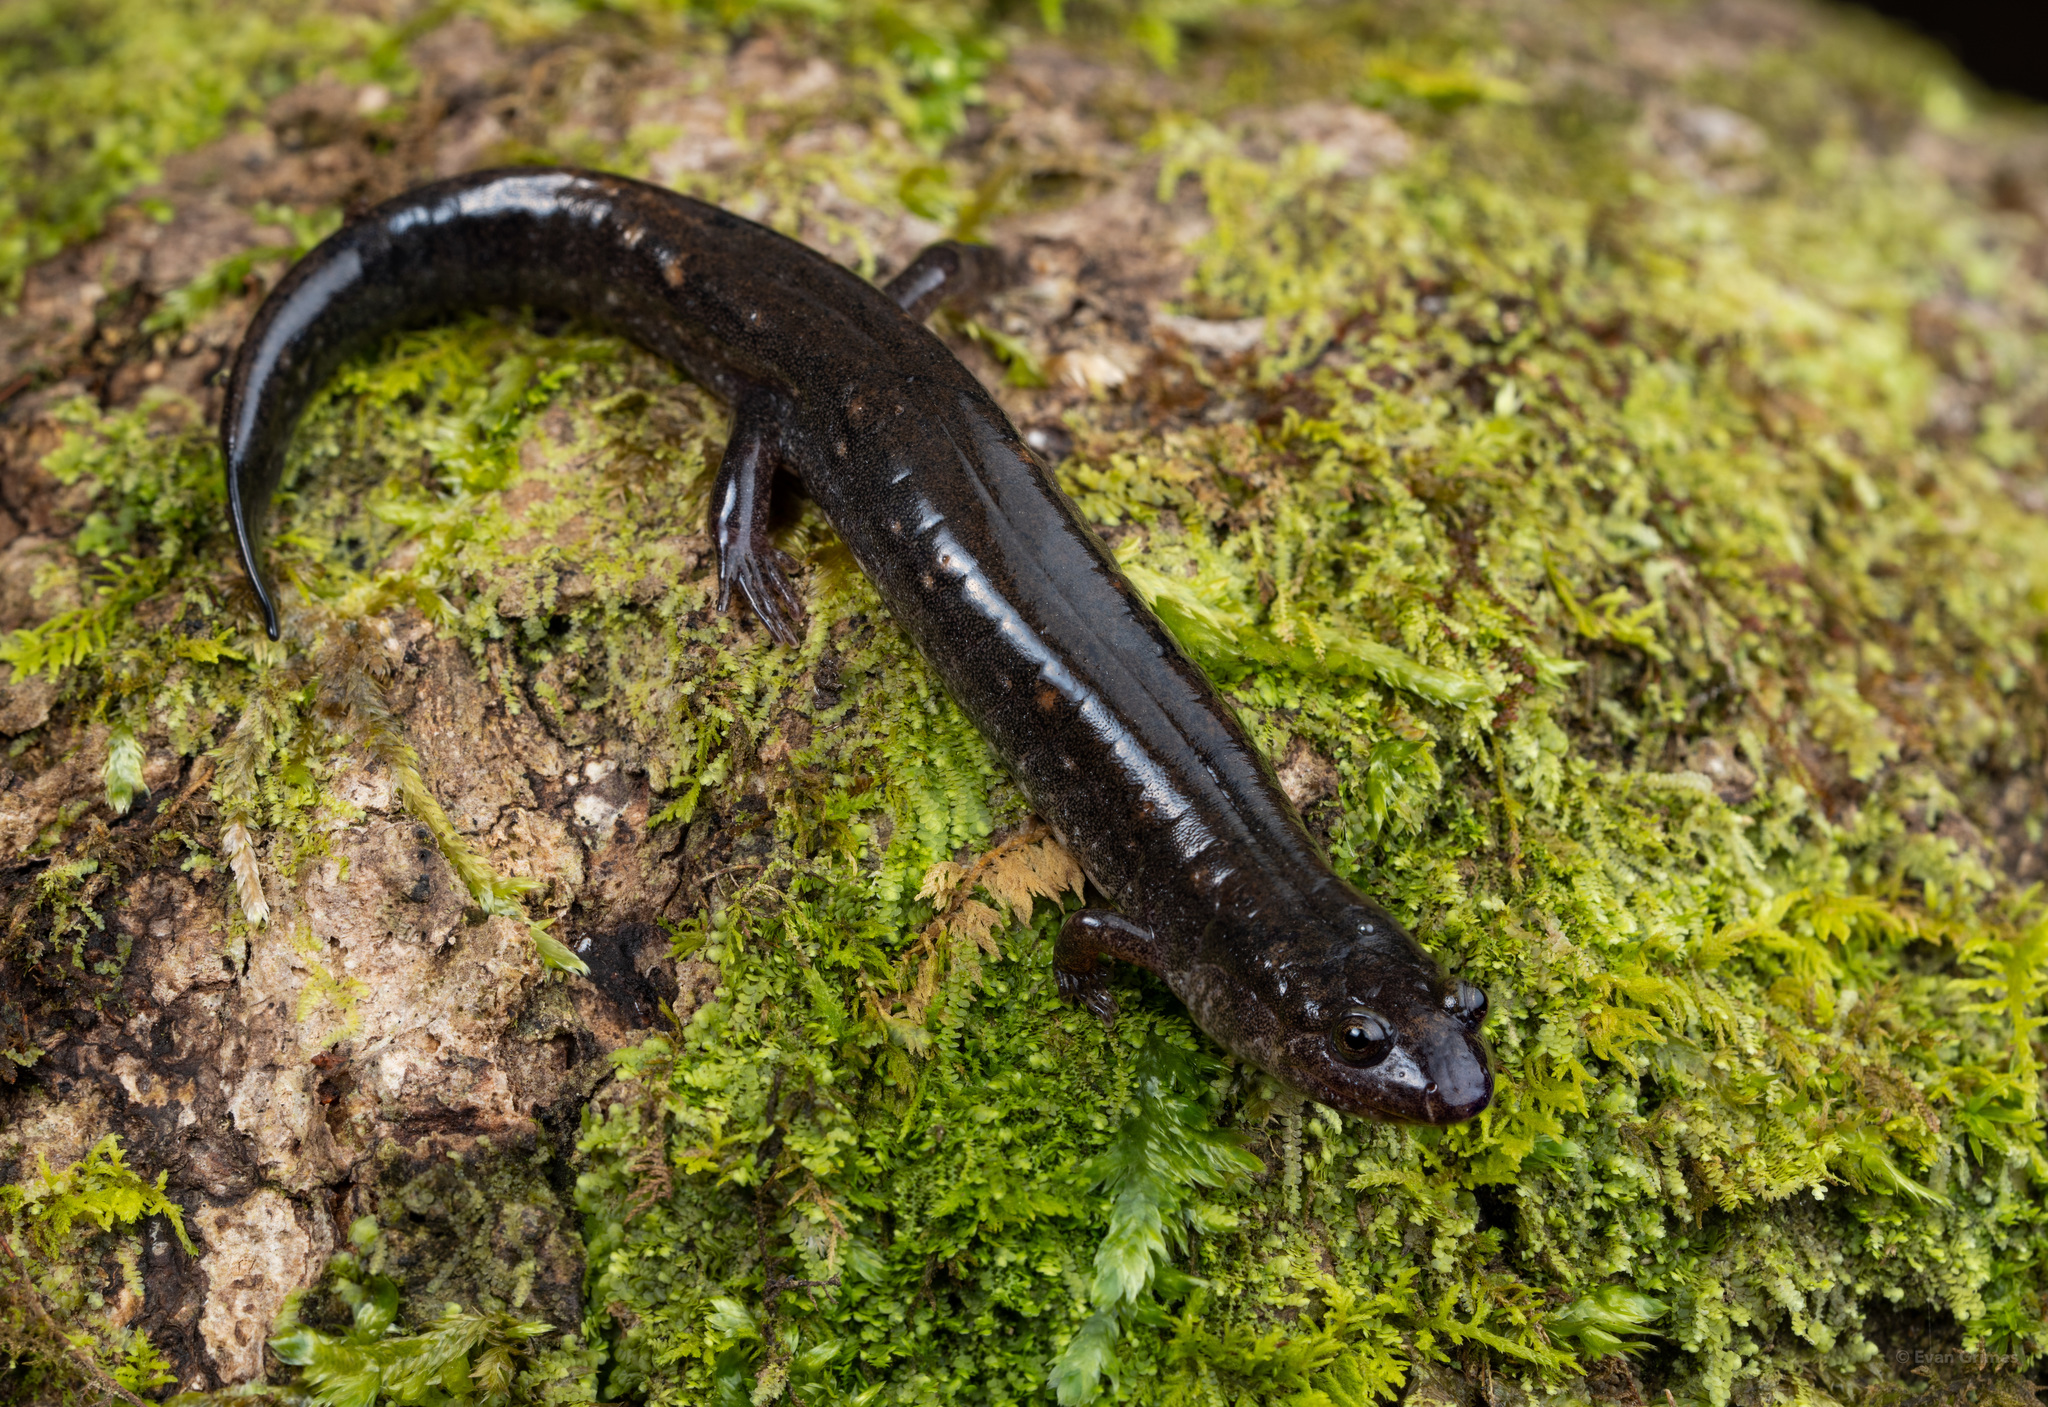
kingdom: Animalia
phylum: Chordata
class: Amphibia
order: Caudata
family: Plethodontidae
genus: Desmognathus
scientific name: Desmognathus valentinei
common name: Valentine's southern dusky salamander
